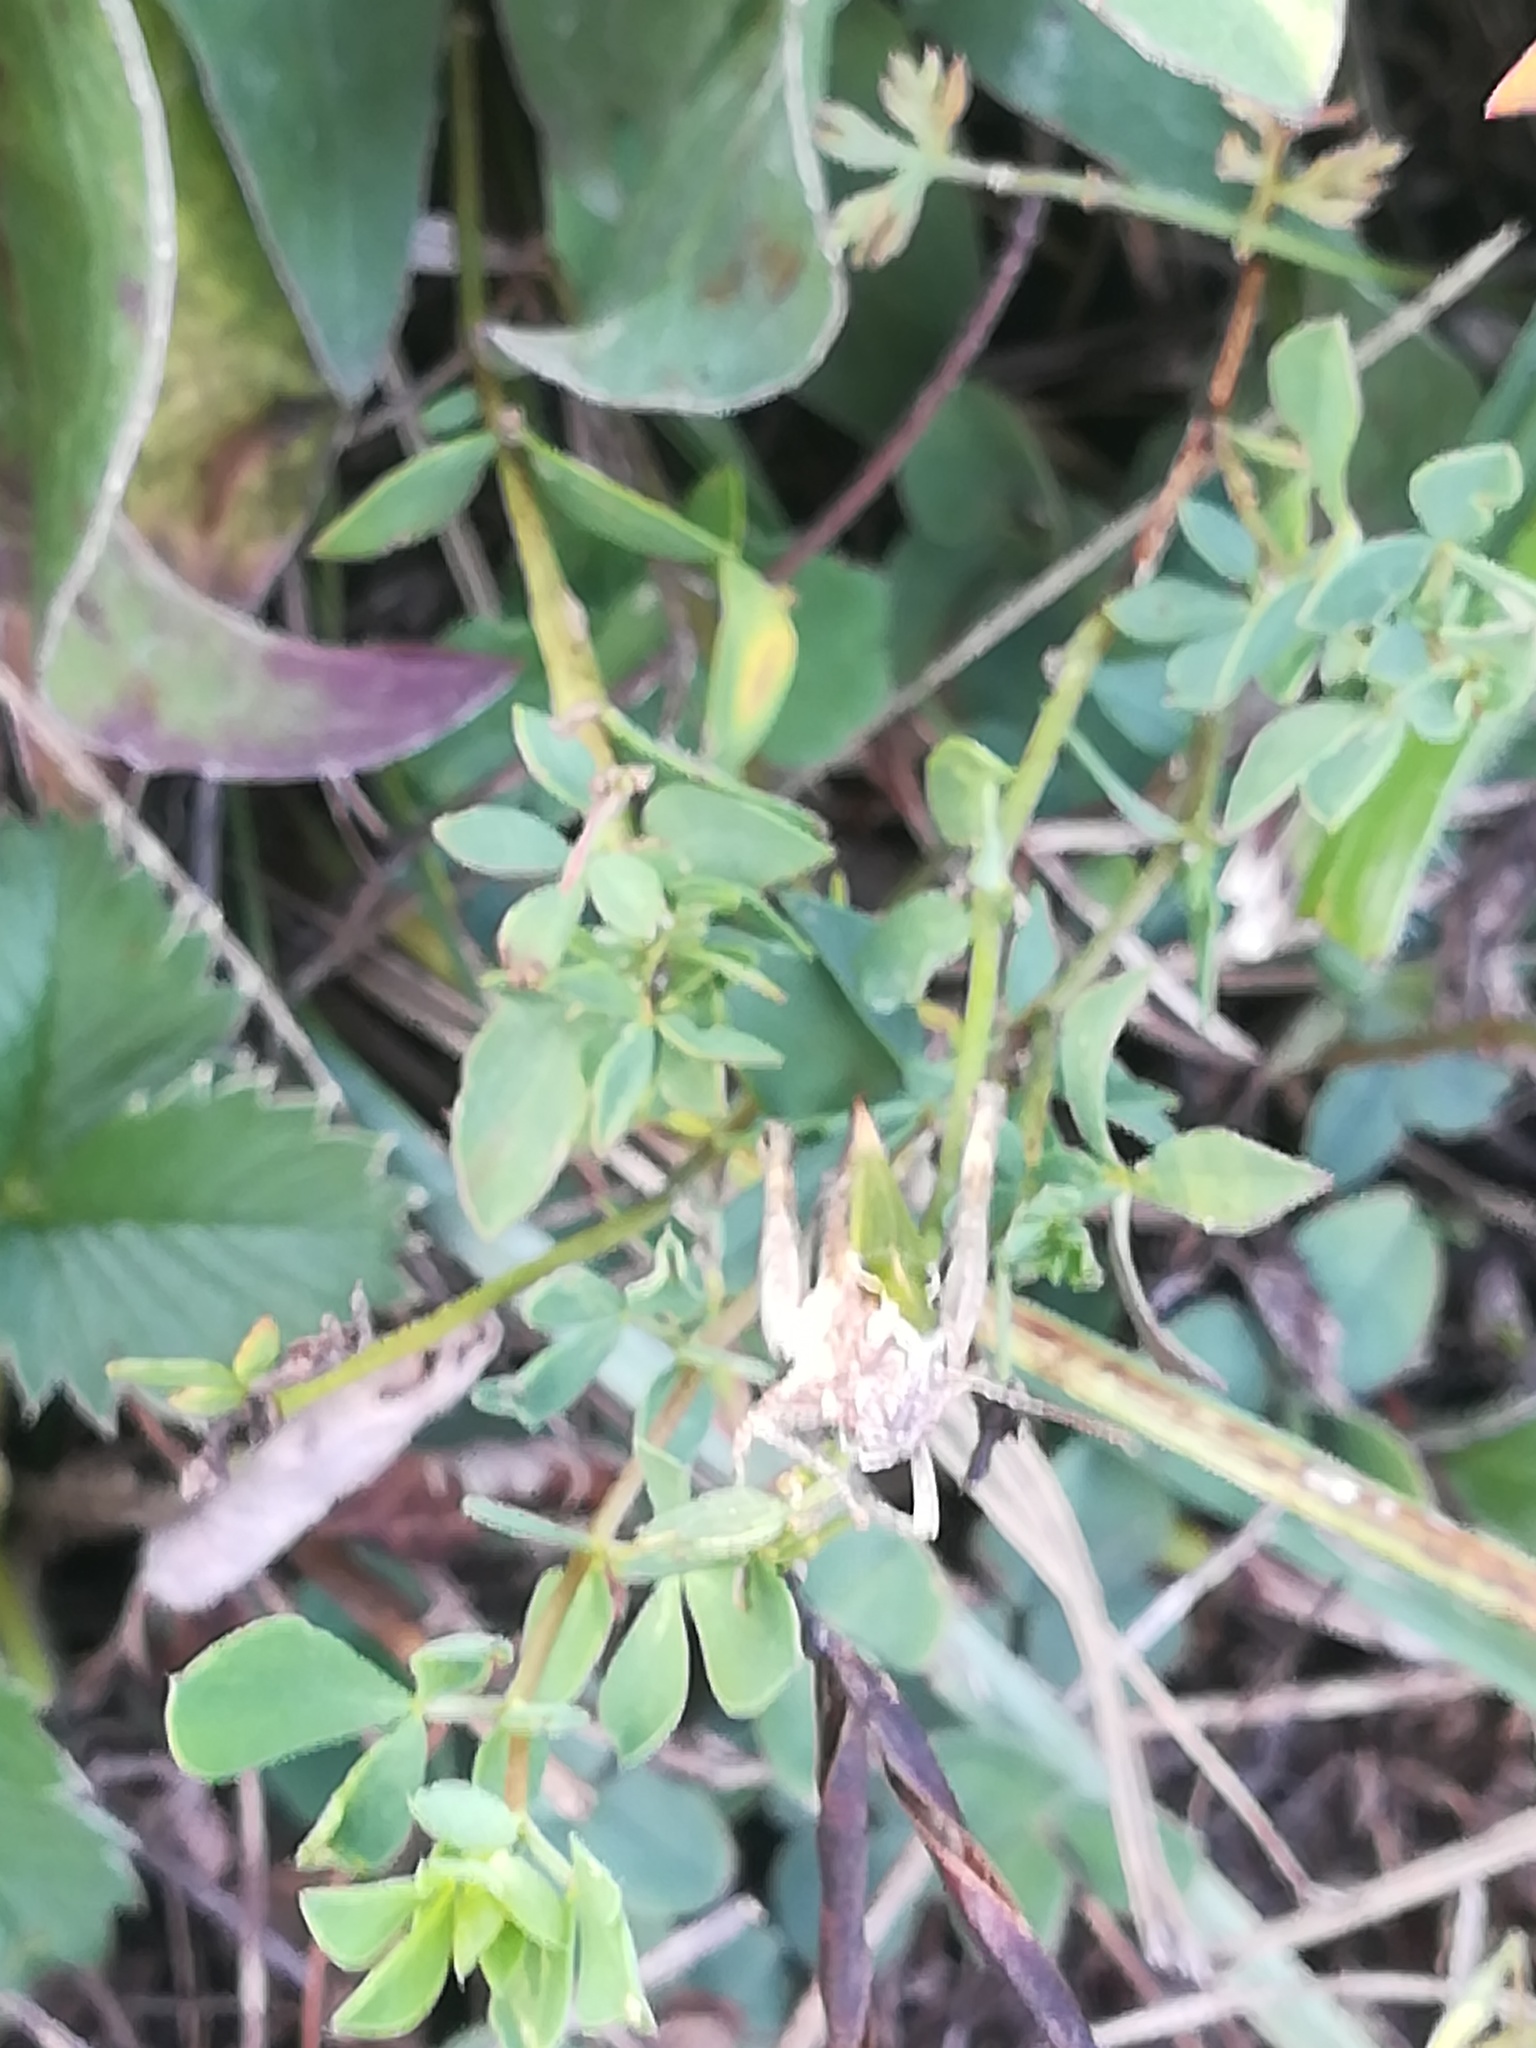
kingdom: Animalia
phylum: Arthropoda
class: Insecta
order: Orthoptera
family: Acrididae
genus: Omocestus
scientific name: Omocestus rufipes
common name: Woodland grasshopper
